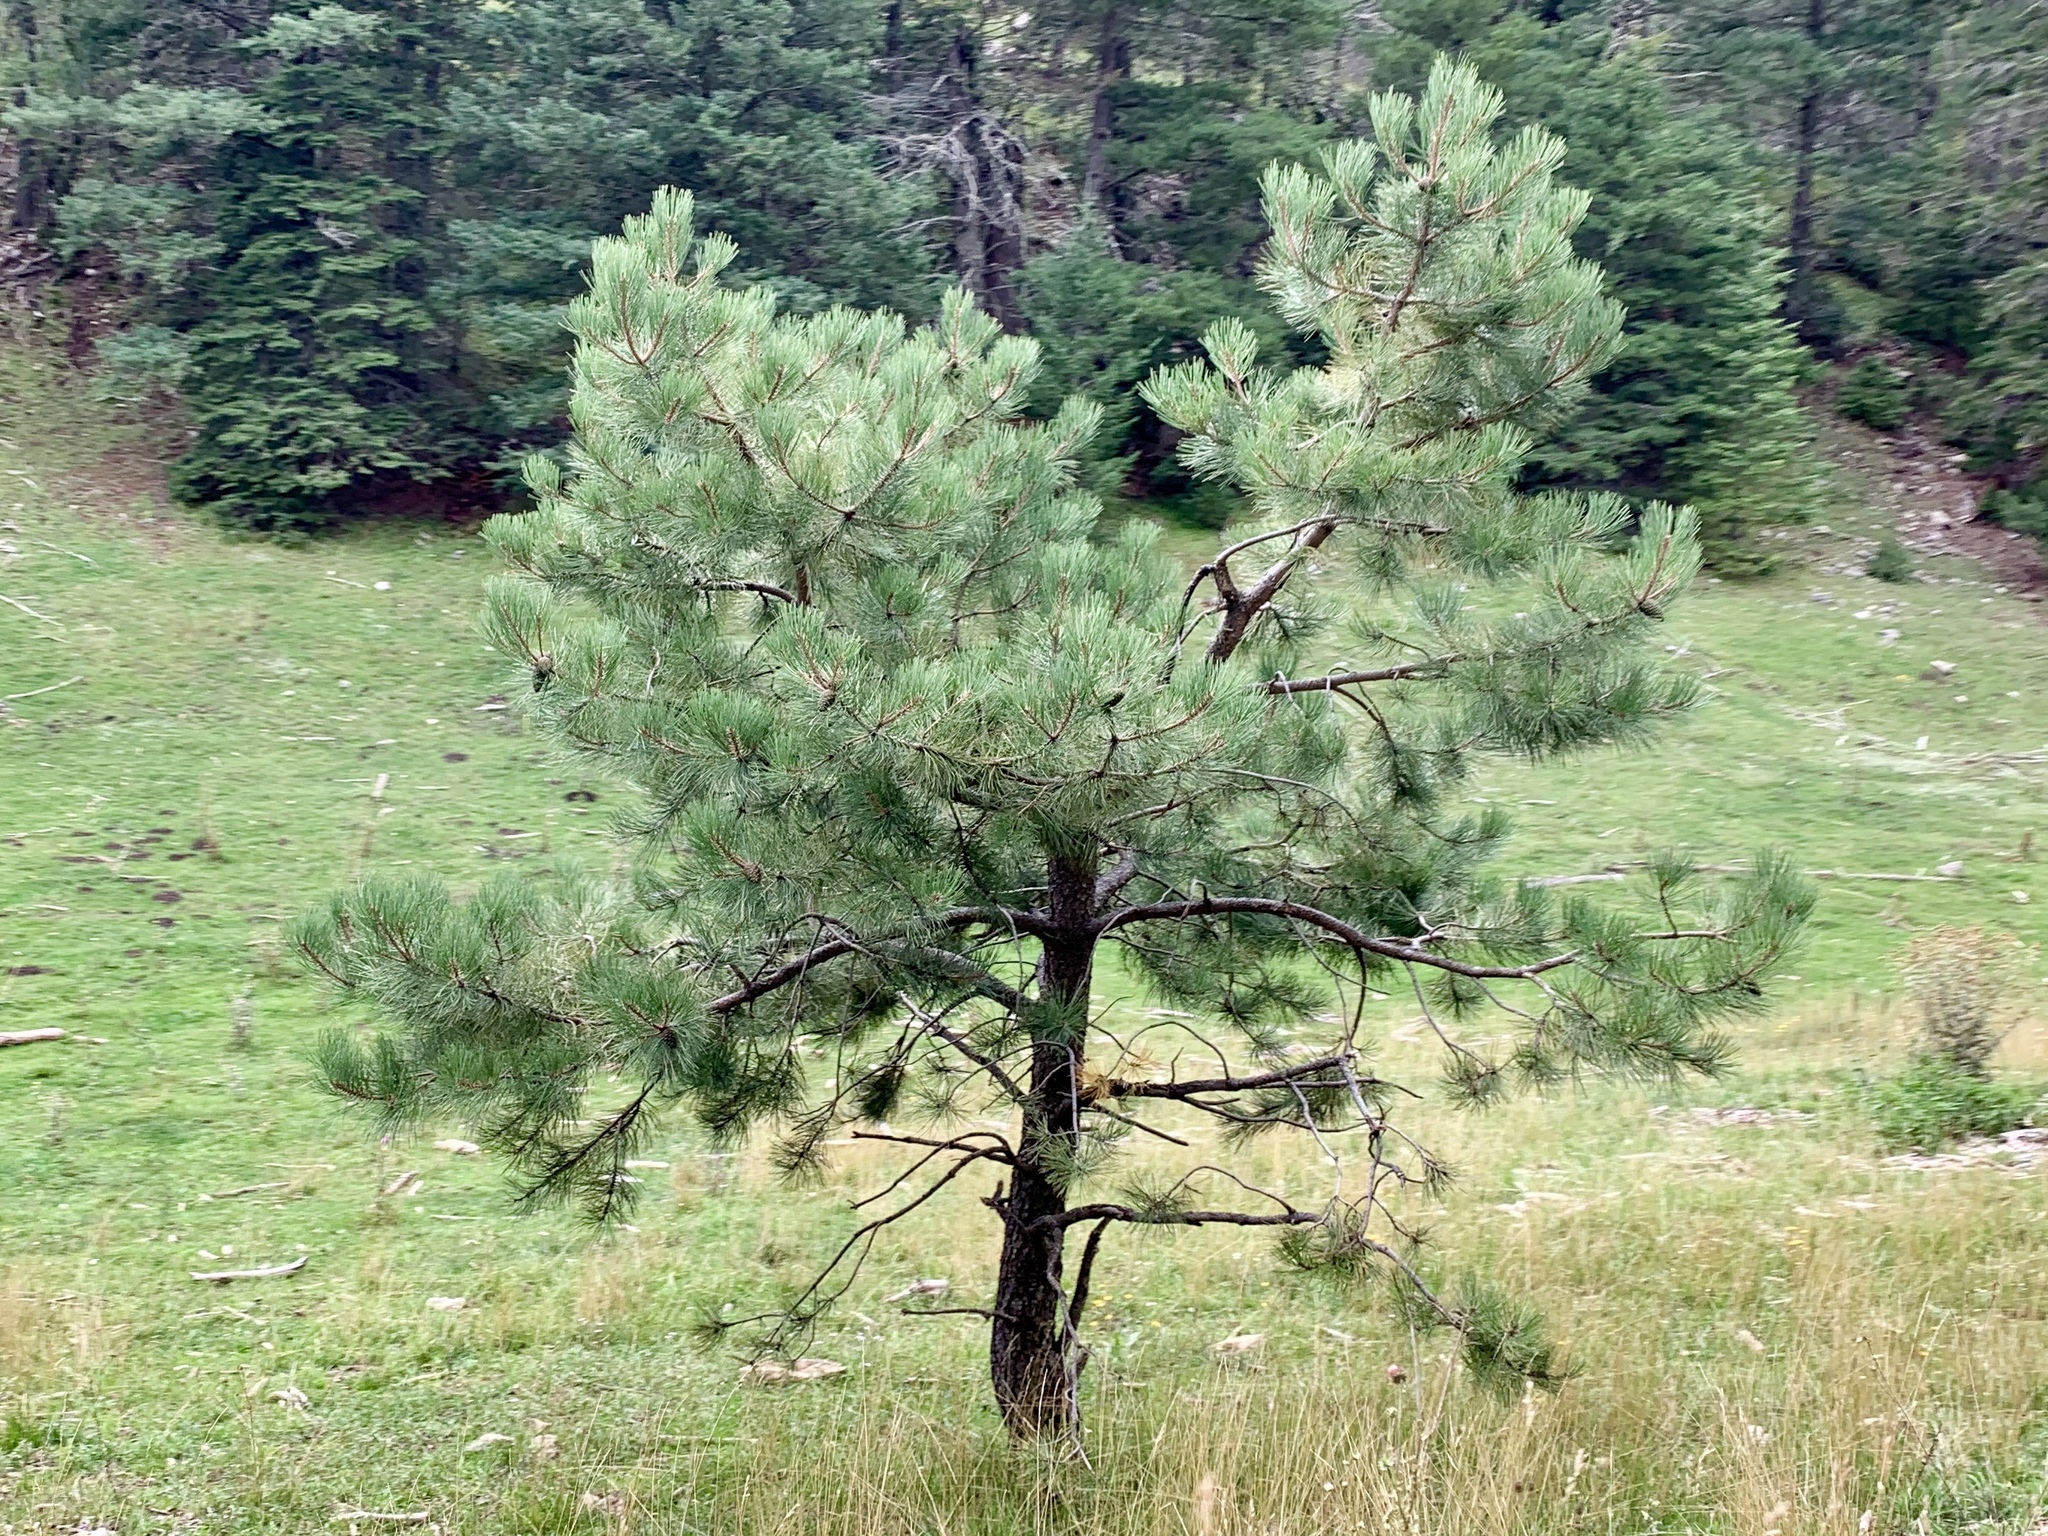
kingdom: Plantae
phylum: Tracheophyta
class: Pinopsida
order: Pinales
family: Pinaceae
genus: Pinus
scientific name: Pinus ponderosa
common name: Western yellow-pine
